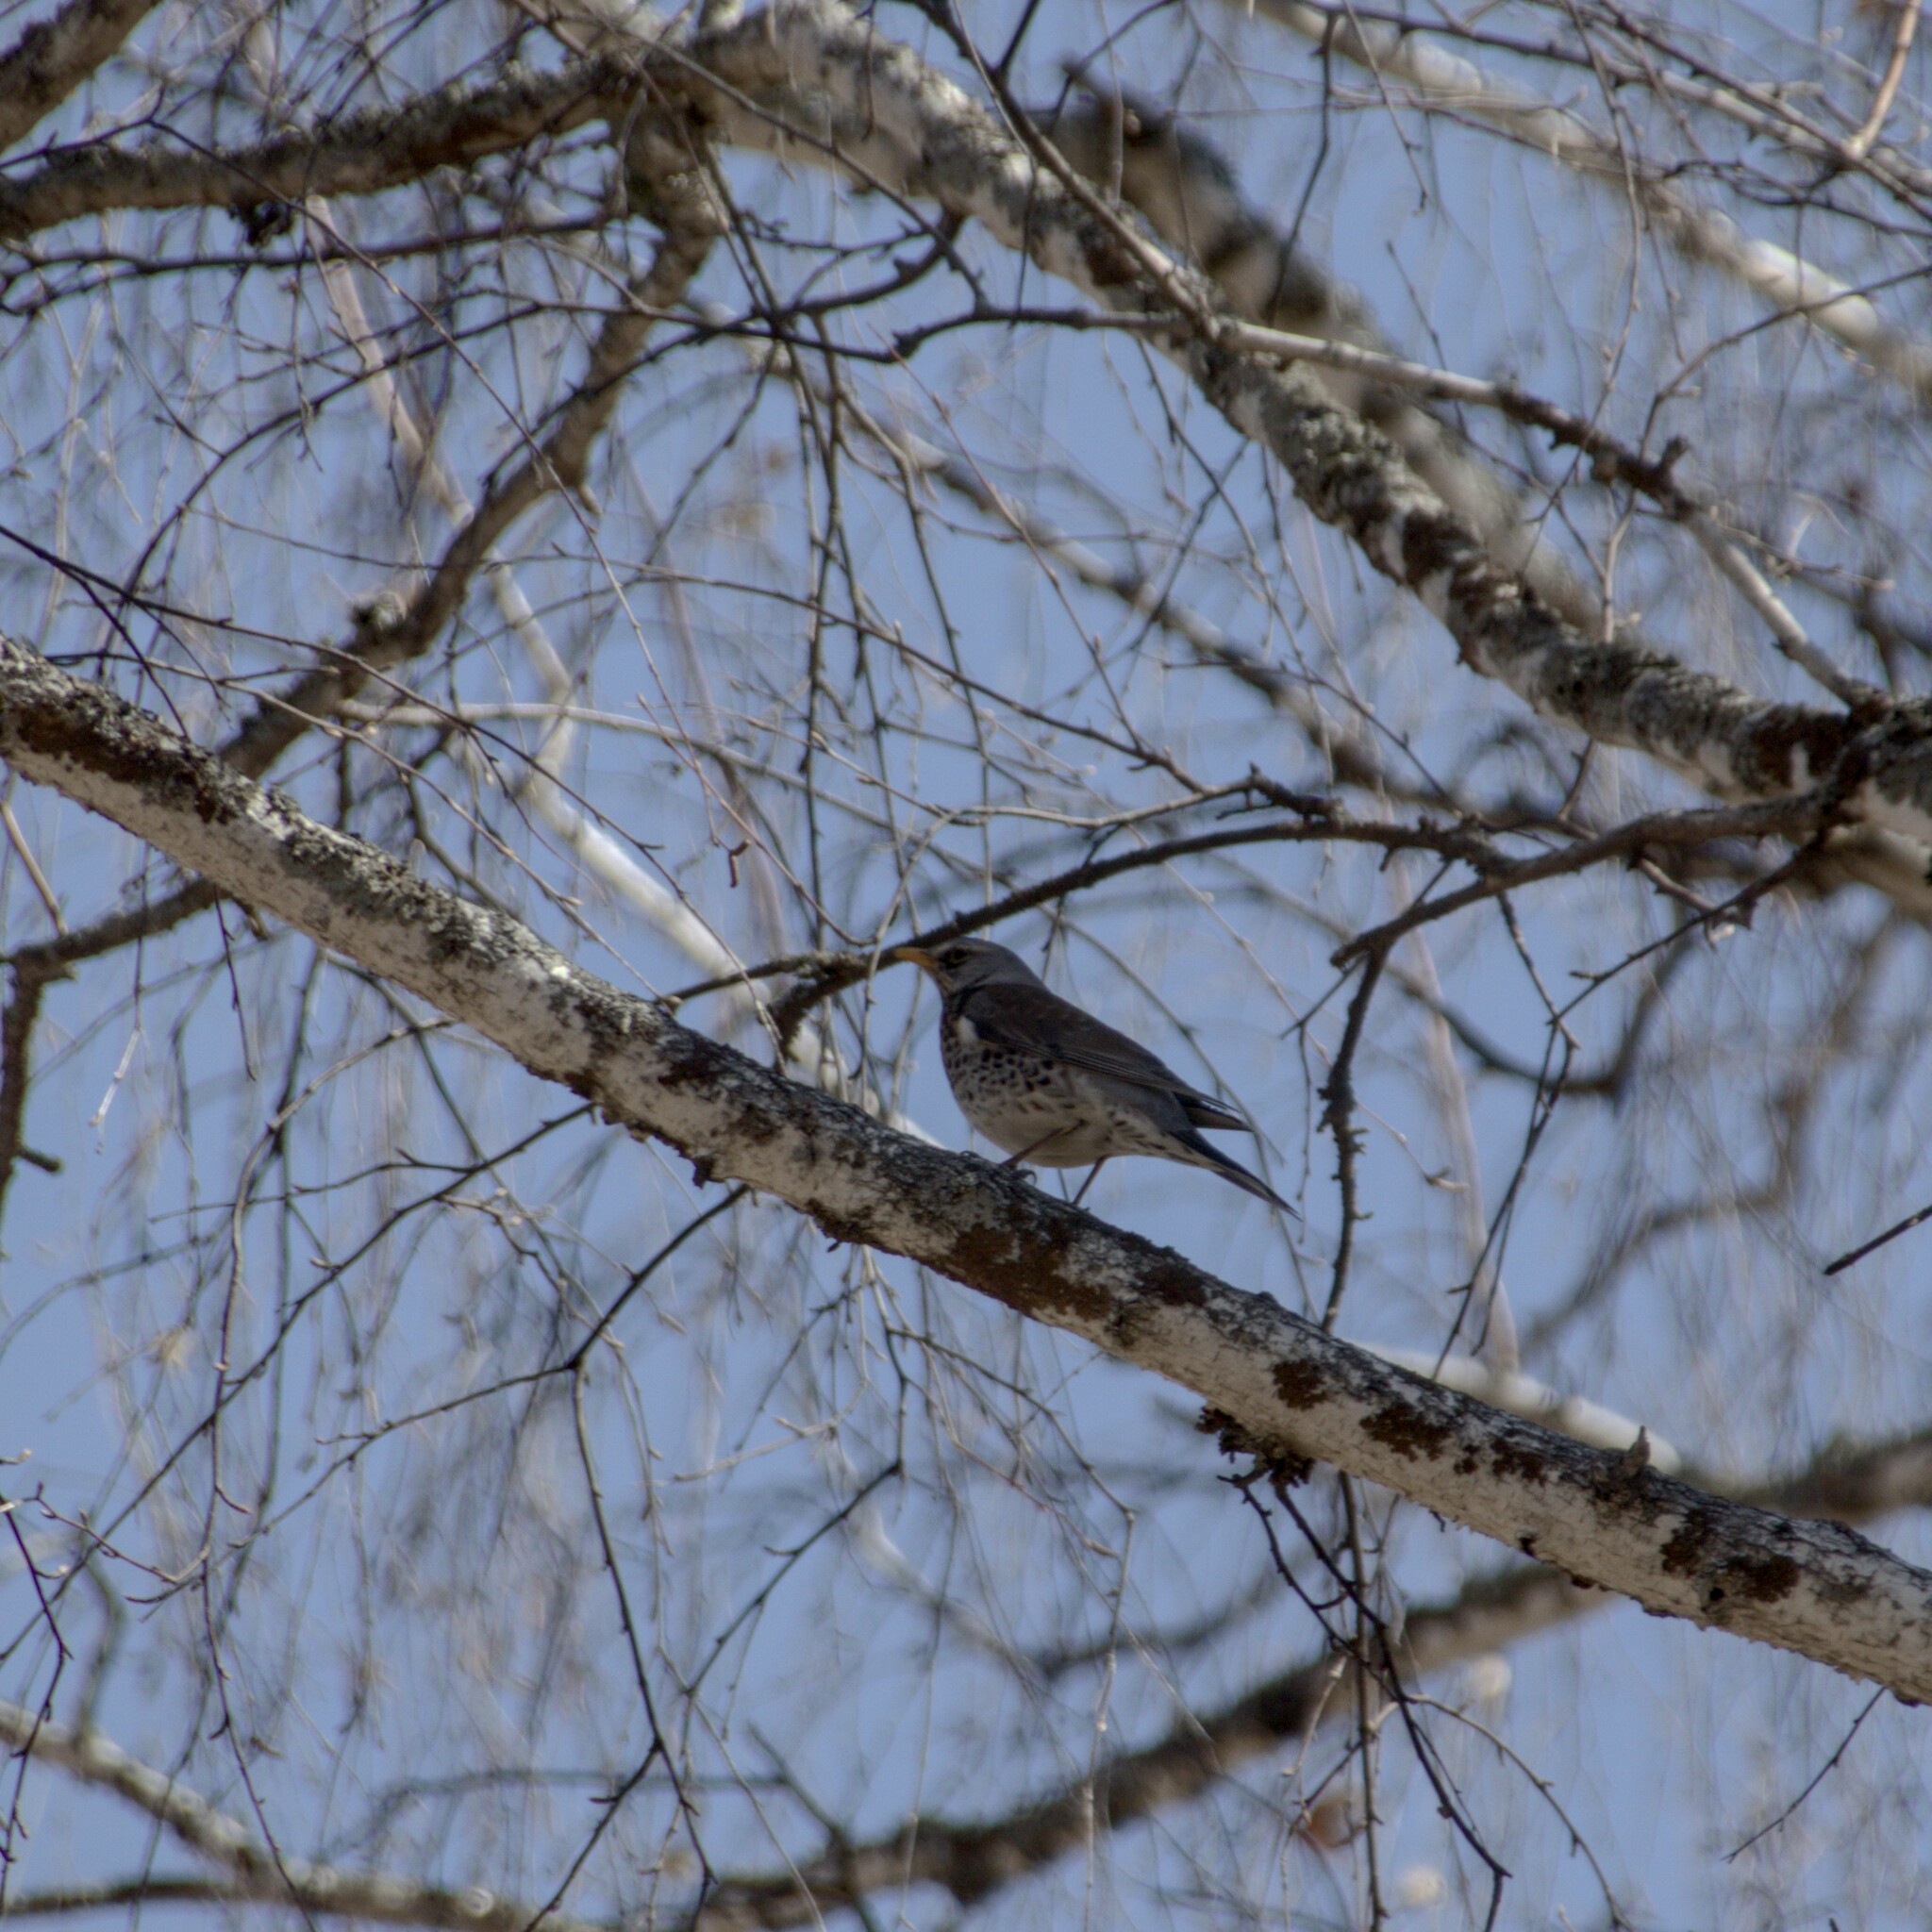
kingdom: Animalia
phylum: Chordata
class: Aves
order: Passeriformes
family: Turdidae
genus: Turdus
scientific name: Turdus pilaris
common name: Fieldfare
